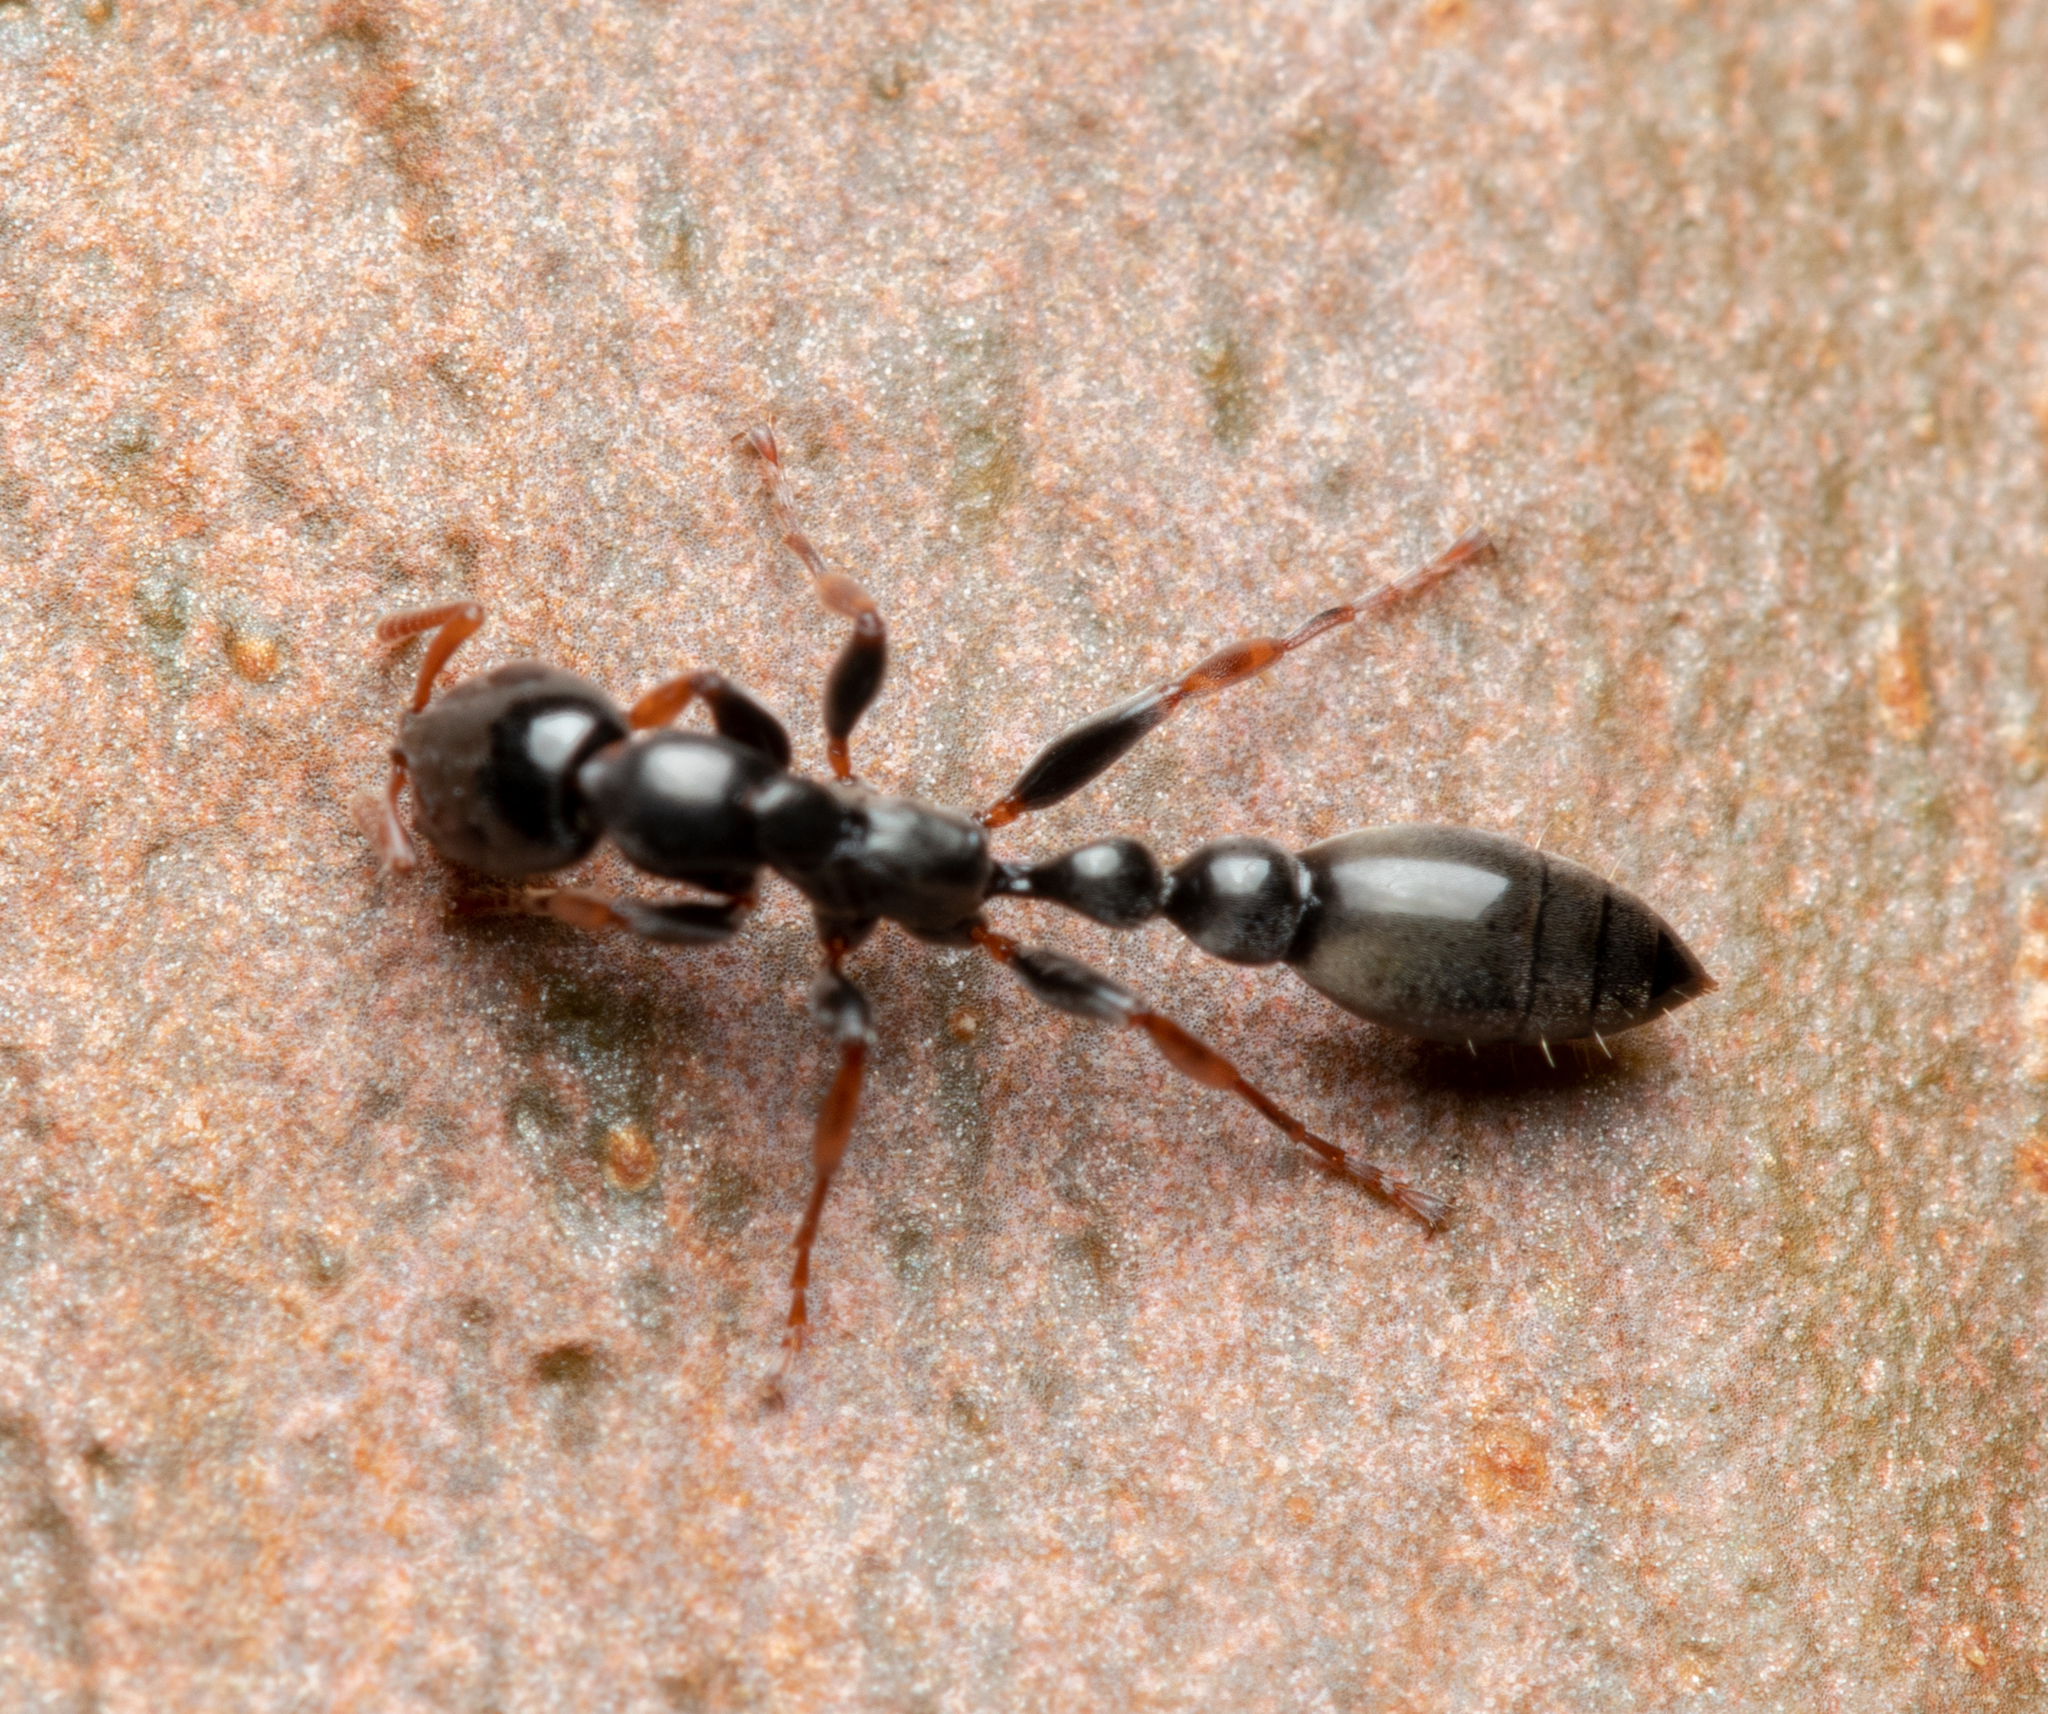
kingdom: Animalia
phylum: Arthropoda
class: Insecta
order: Hymenoptera
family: Formicidae
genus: Tetraponera
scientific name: Tetraponera punctulata
